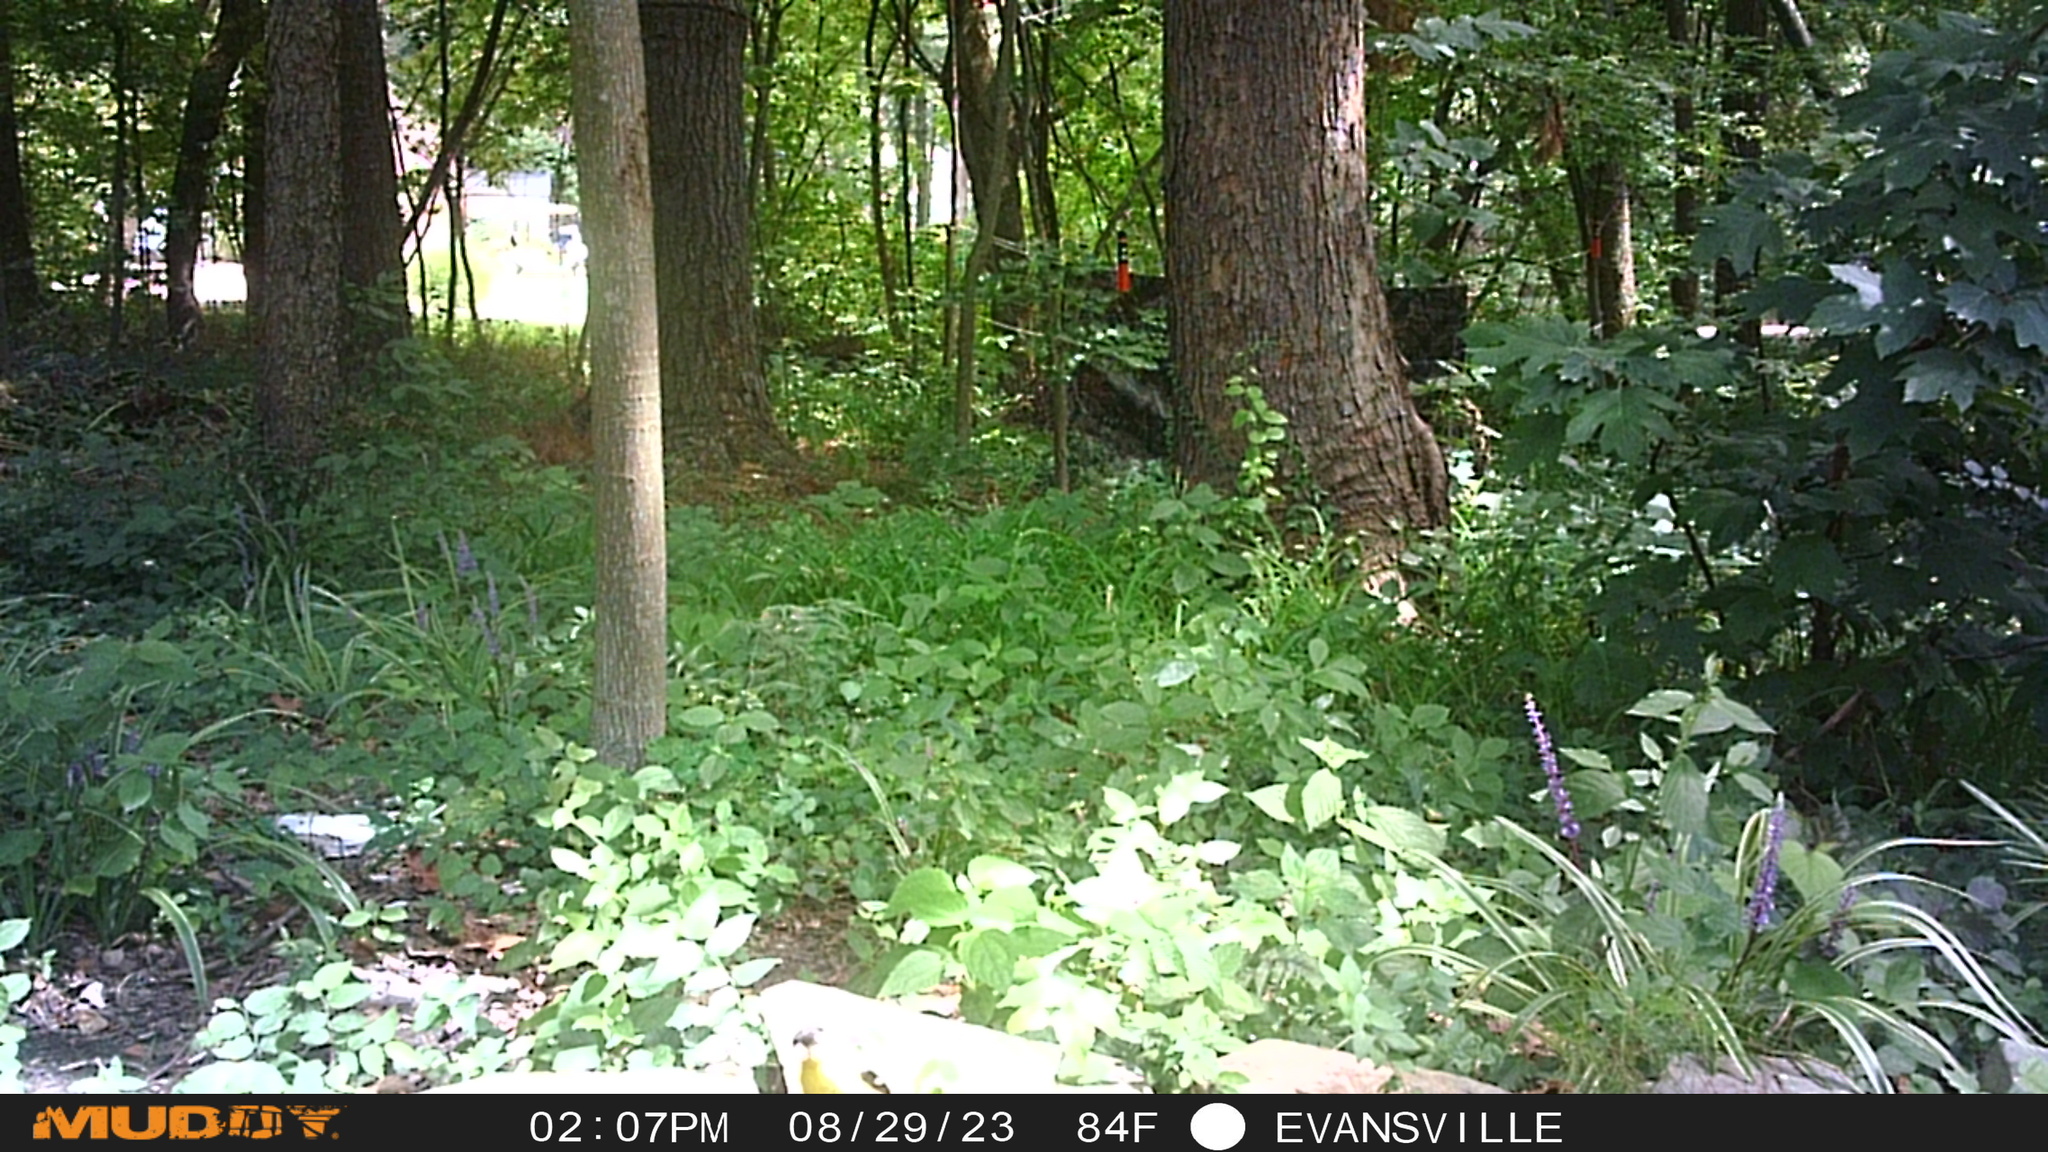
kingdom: Animalia
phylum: Chordata
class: Aves
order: Passeriformes
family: Fringillidae
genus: Spinus
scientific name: Spinus tristis
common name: American goldfinch
